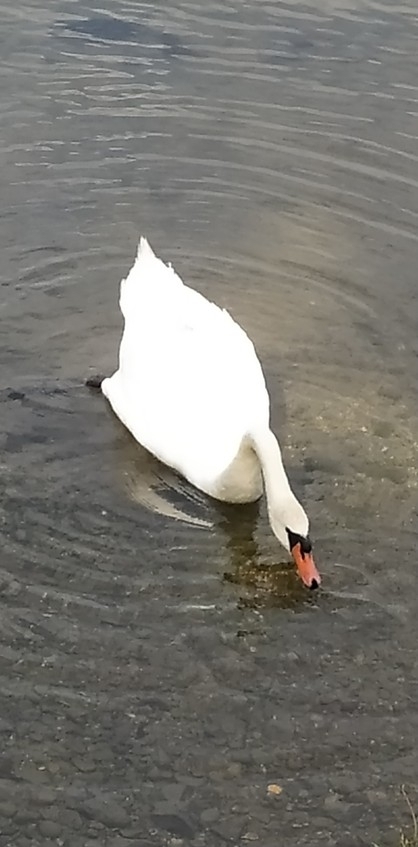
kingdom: Animalia
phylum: Chordata
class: Aves
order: Anseriformes
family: Anatidae
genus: Cygnus
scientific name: Cygnus olor
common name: Mute swan
